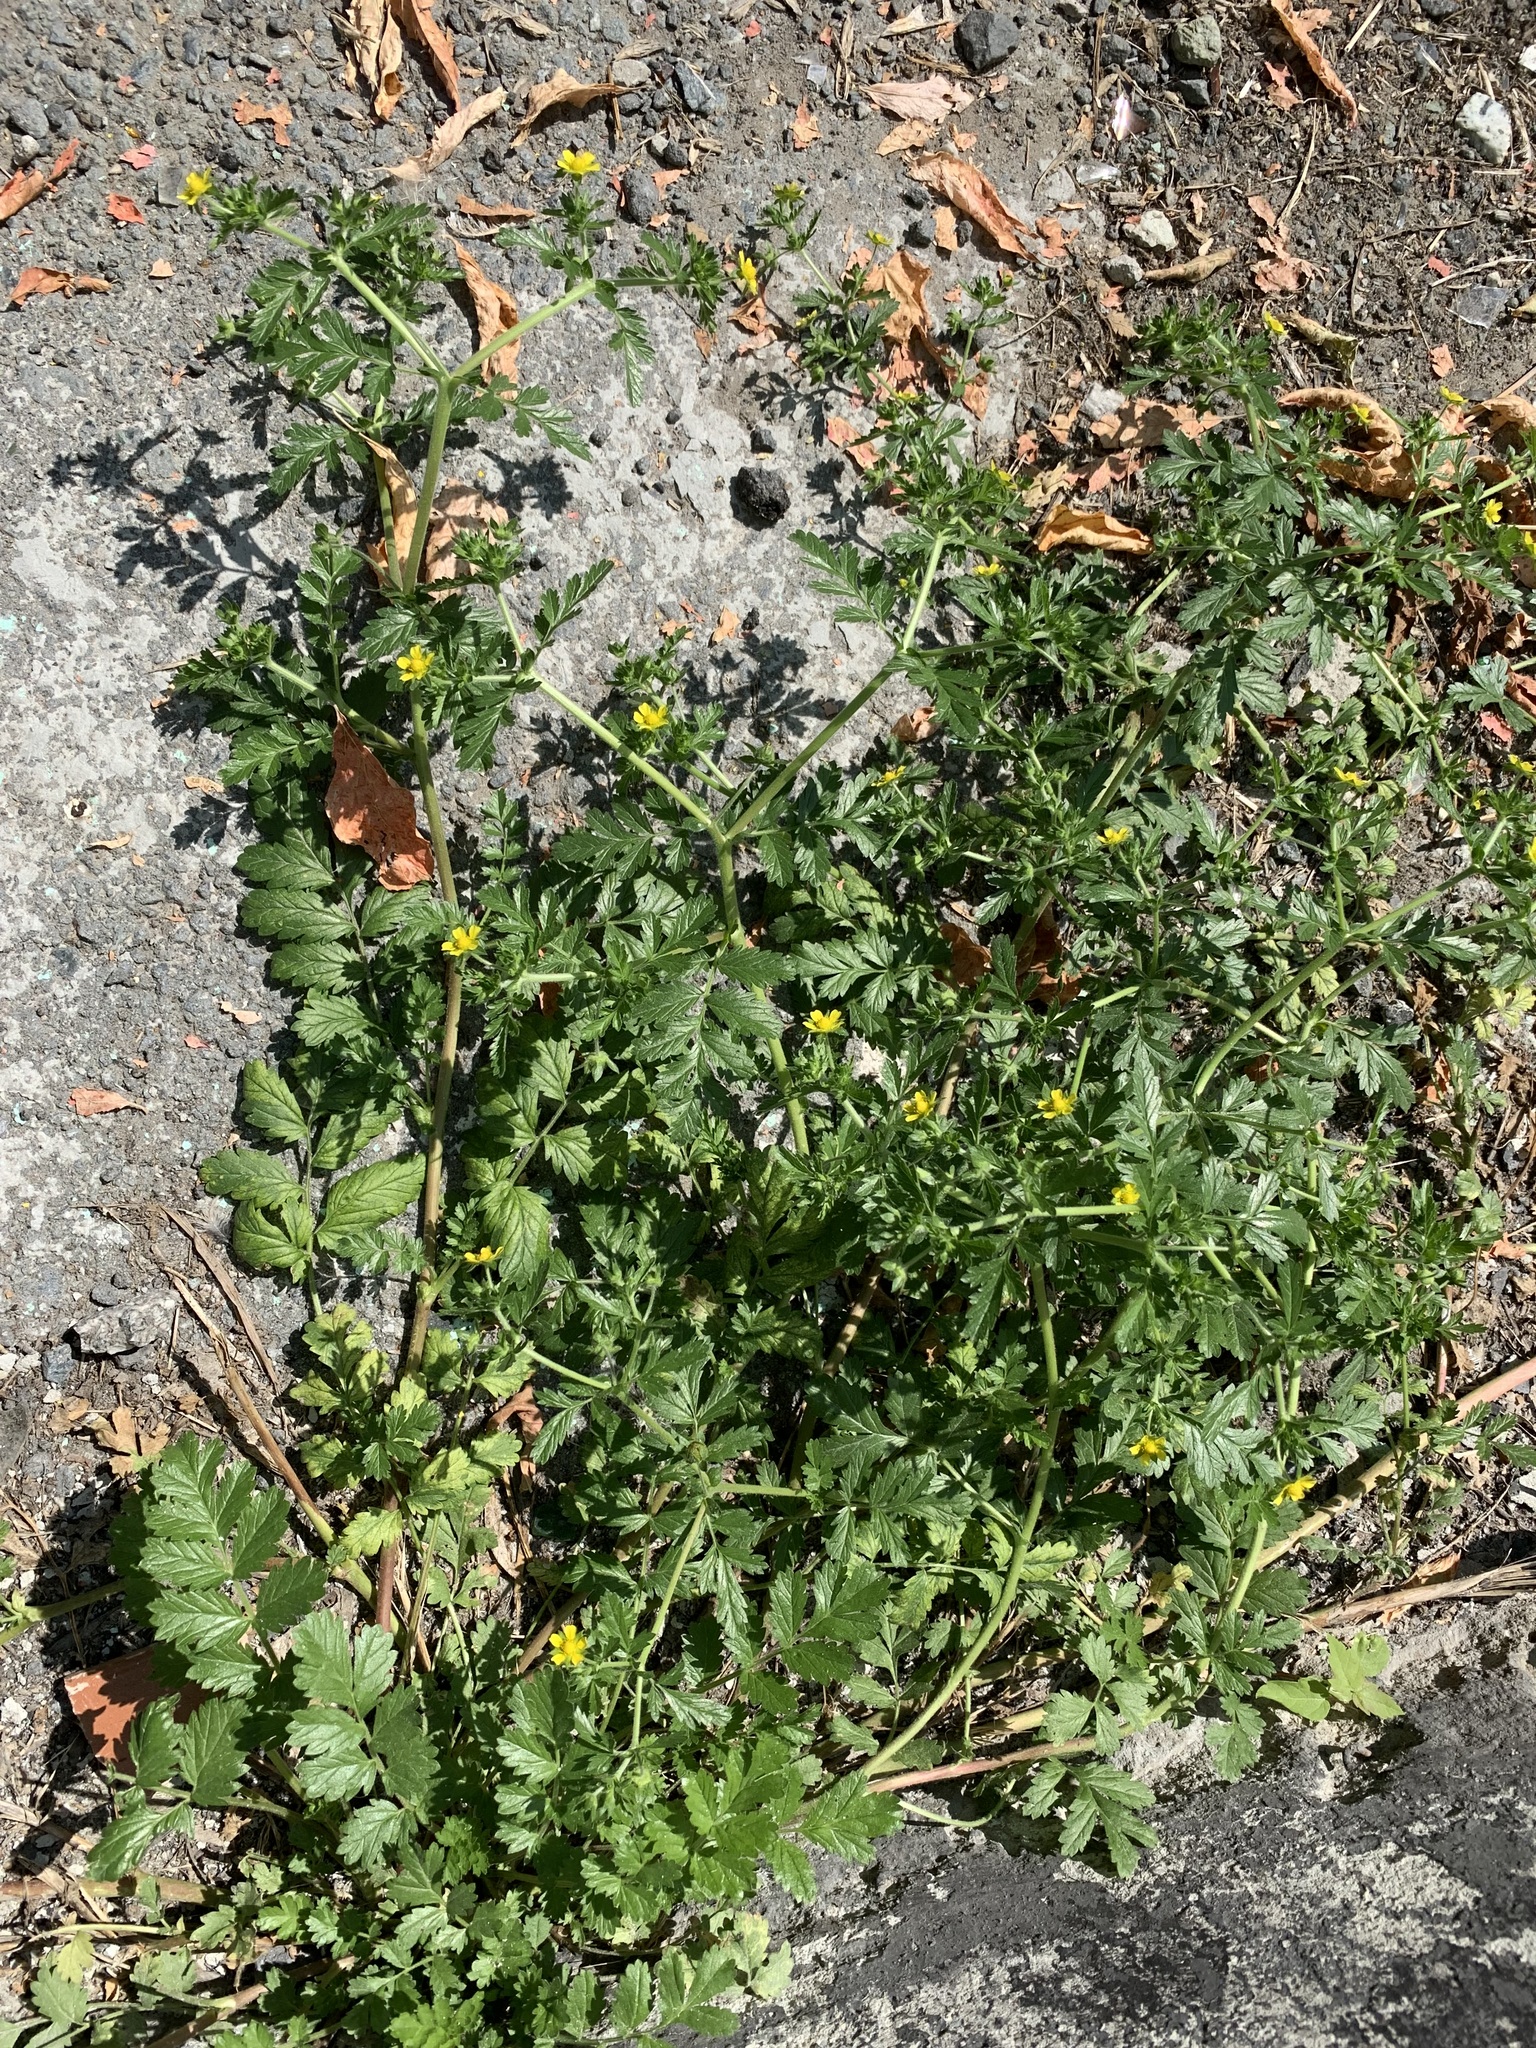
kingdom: Plantae
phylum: Tracheophyta
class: Magnoliopsida
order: Rosales
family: Rosaceae
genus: Potentilla
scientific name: Potentilla supina
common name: Prostrate cinquefoil
